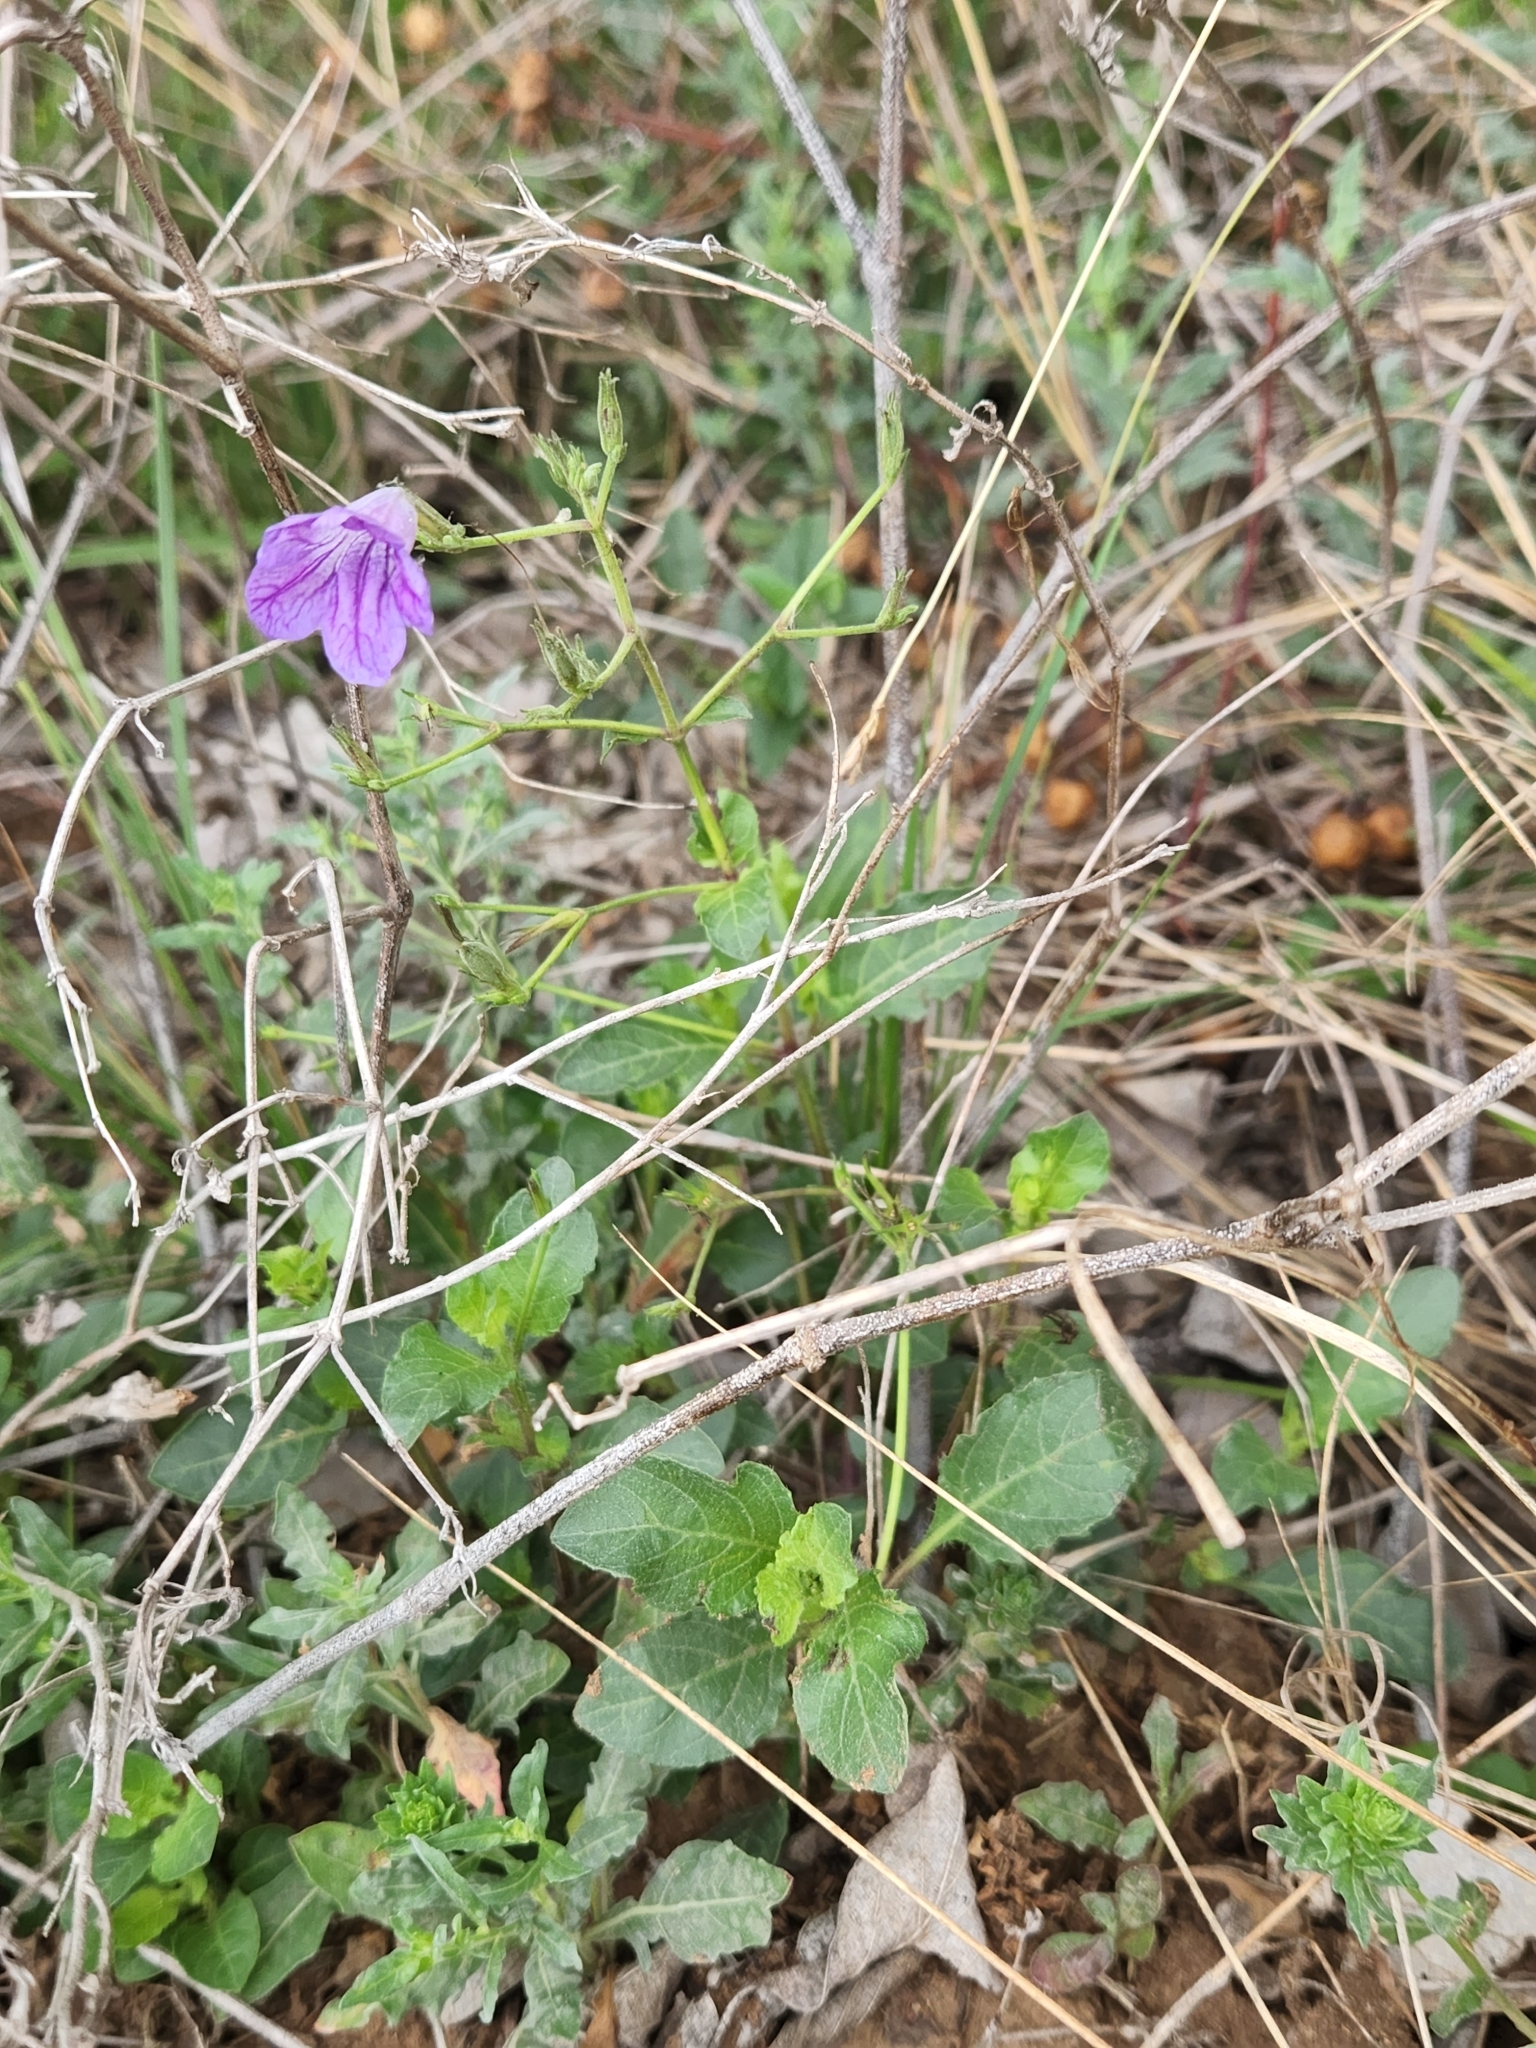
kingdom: Plantae
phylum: Tracheophyta
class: Magnoliopsida
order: Lamiales
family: Acanthaceae
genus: Ruellia
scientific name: Ruellia ciliatiflora
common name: Hairyflower wild petunia
